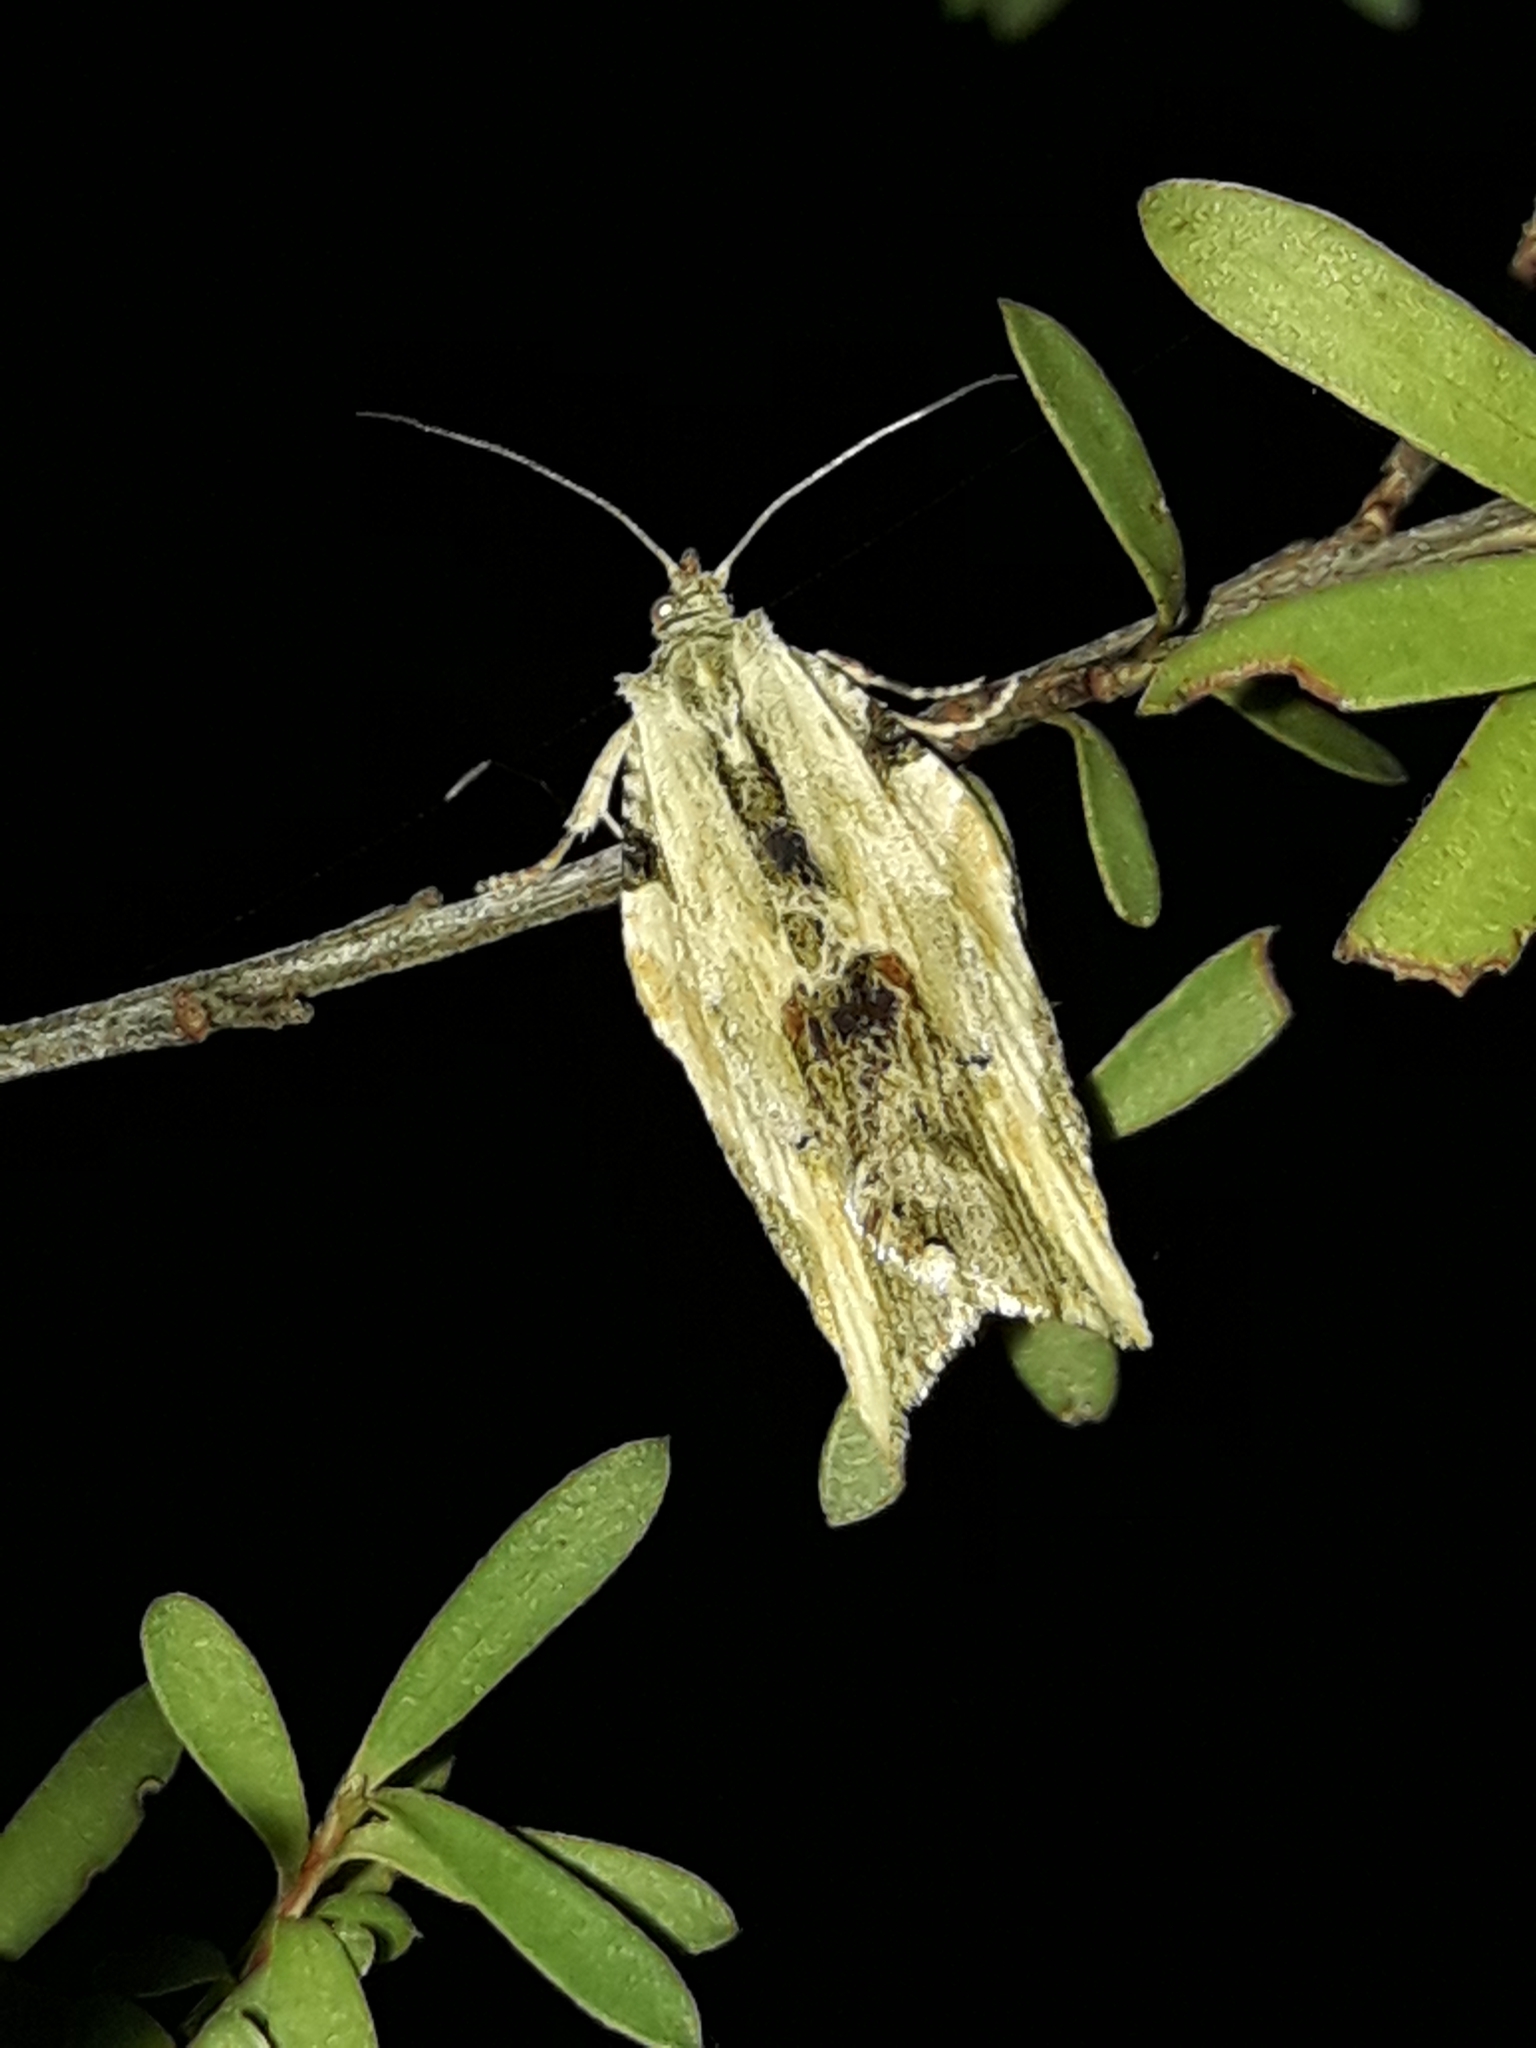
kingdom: Animalia
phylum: Arthropoda
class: Insecta
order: Lepidoptera
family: Tortricidae
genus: Epalxiphora
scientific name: Epalxiphora axenana
